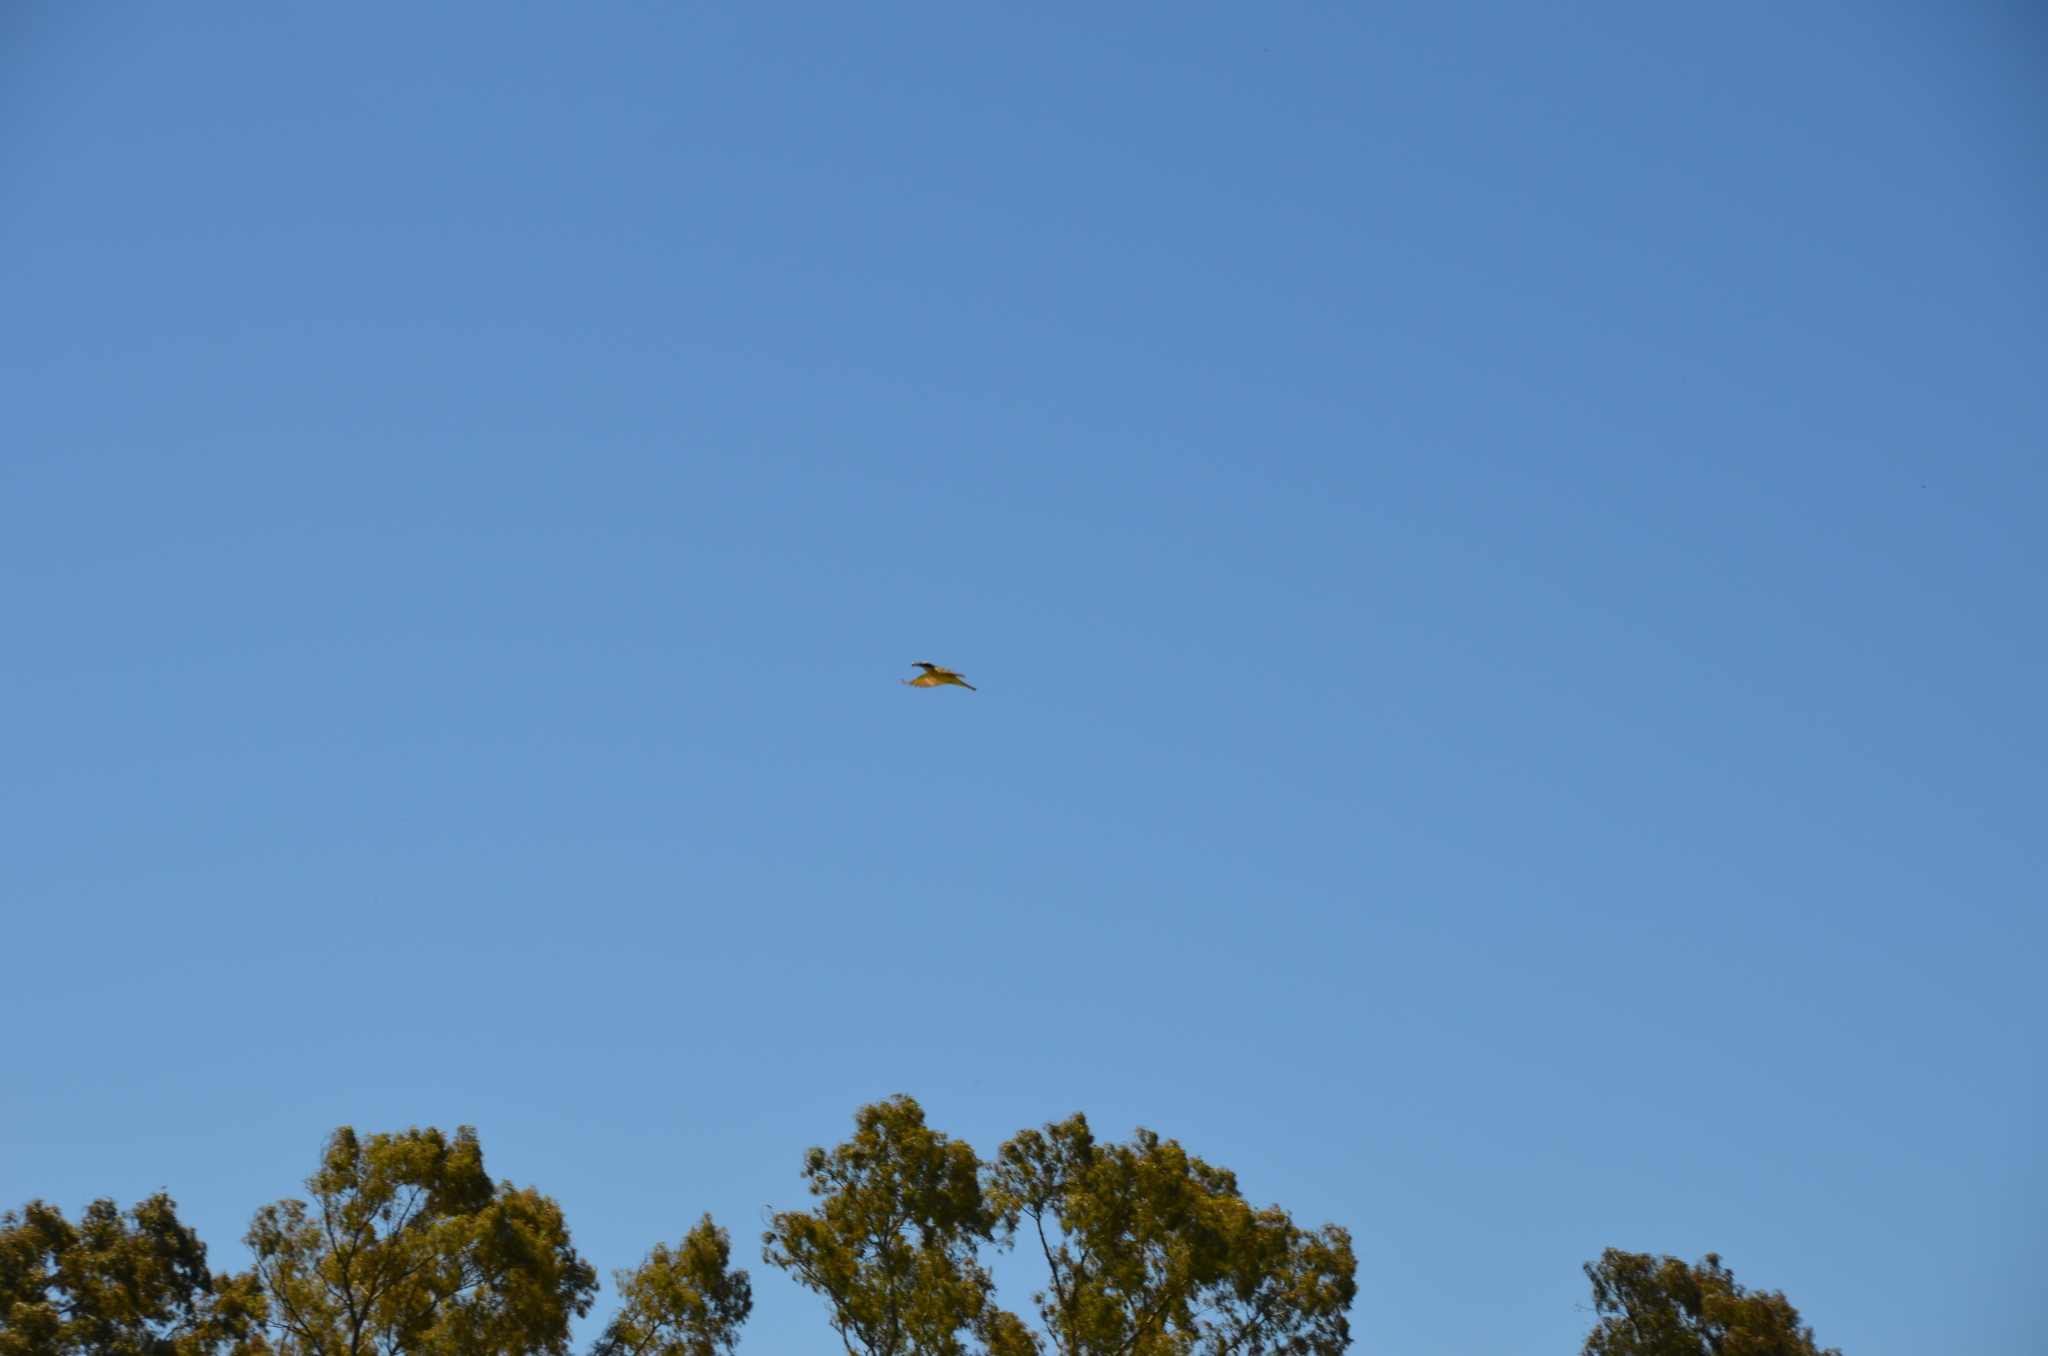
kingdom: Animalia
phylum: Chordata
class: Aves
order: Passeriformes
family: Tyrannidae
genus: Pitangus
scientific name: Pitangus sulphuratus
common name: Great kiskadee
